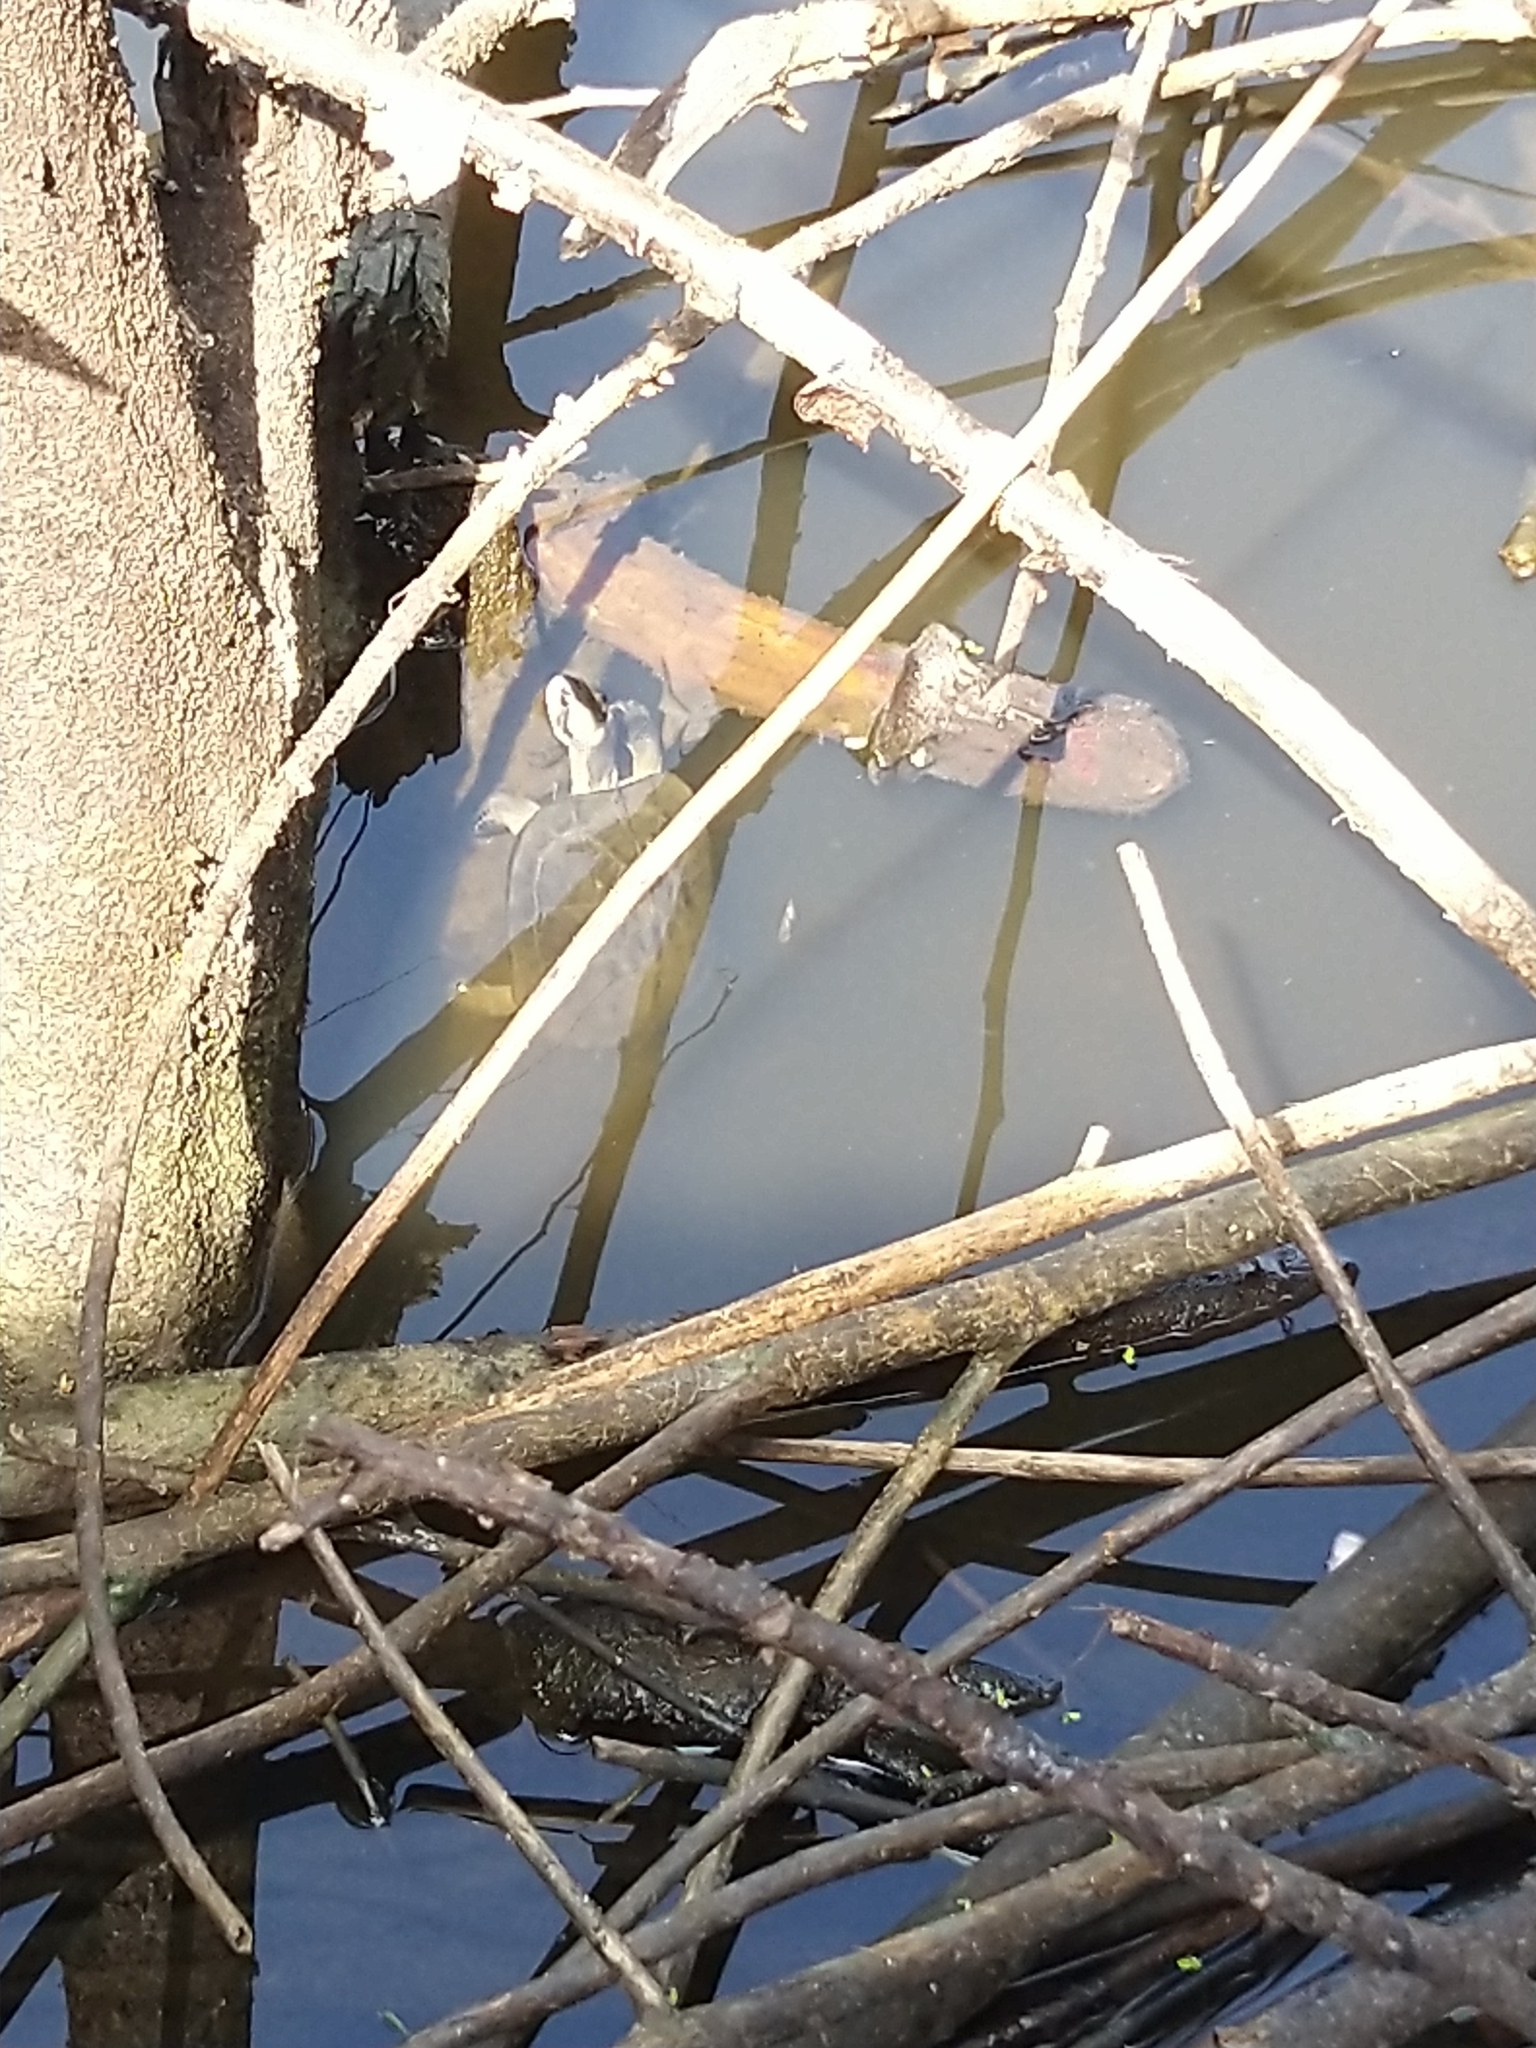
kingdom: Animalia
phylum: Chordata
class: Testudines
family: Geoemydidae
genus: Melanochelys
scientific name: Melanochelys trijuga
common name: Indian black turtle
